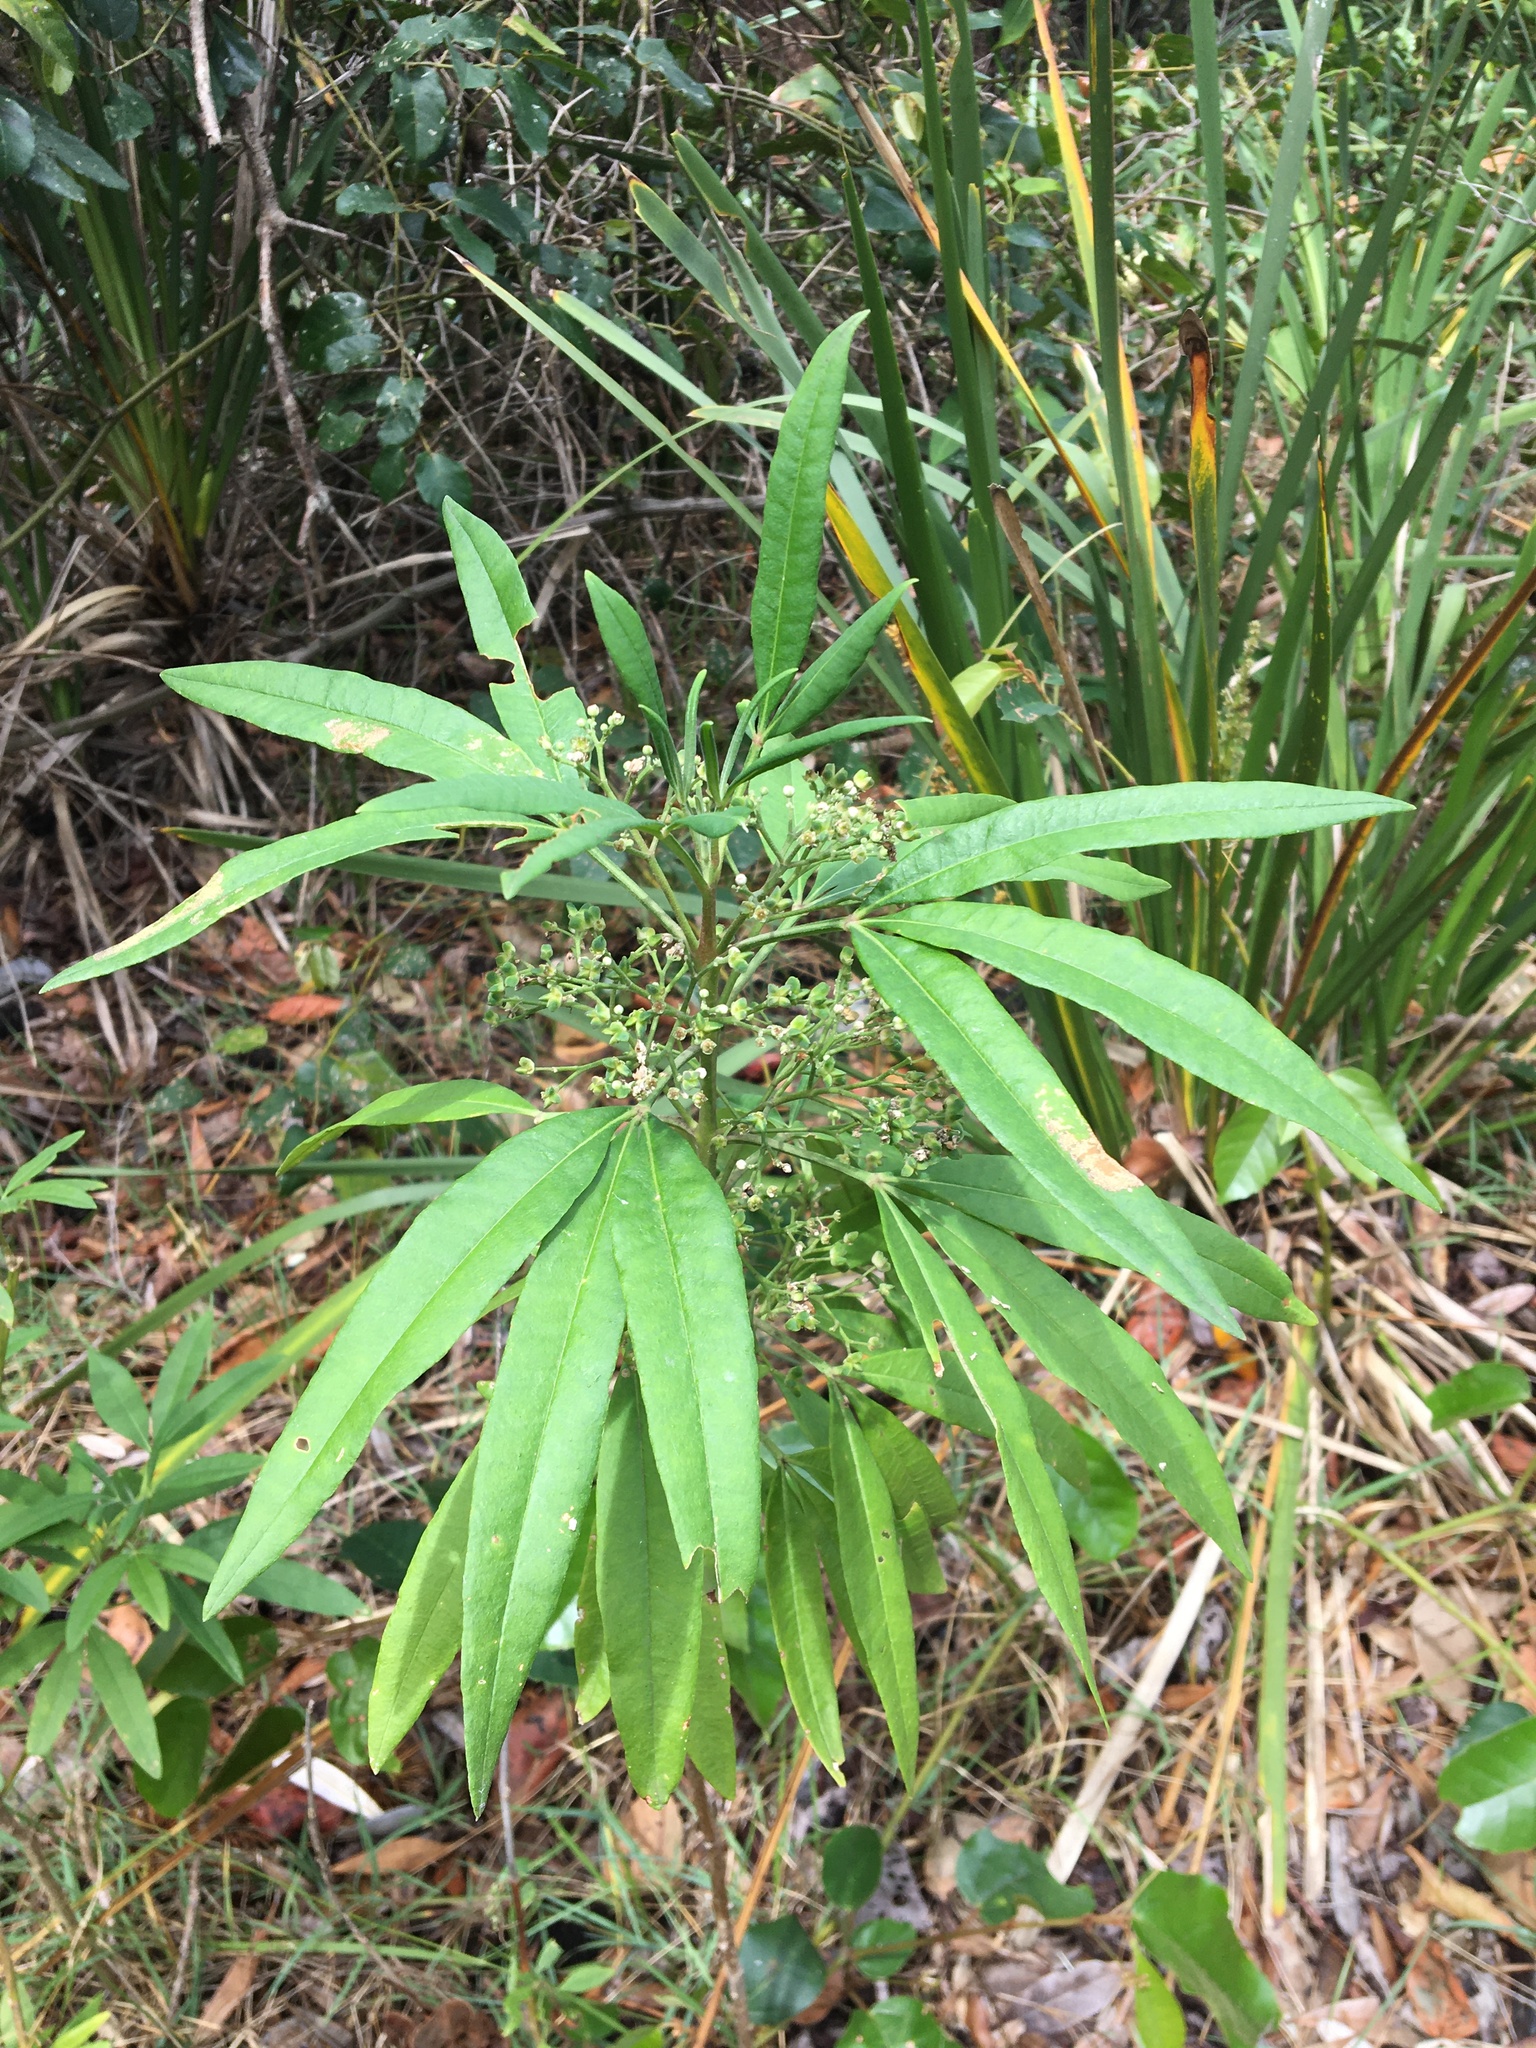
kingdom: Plantae
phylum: Tracheophyta
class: Magnoliopsida
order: Sapindales
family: Rutaceae
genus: Zieria
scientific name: Zieria arborescens
